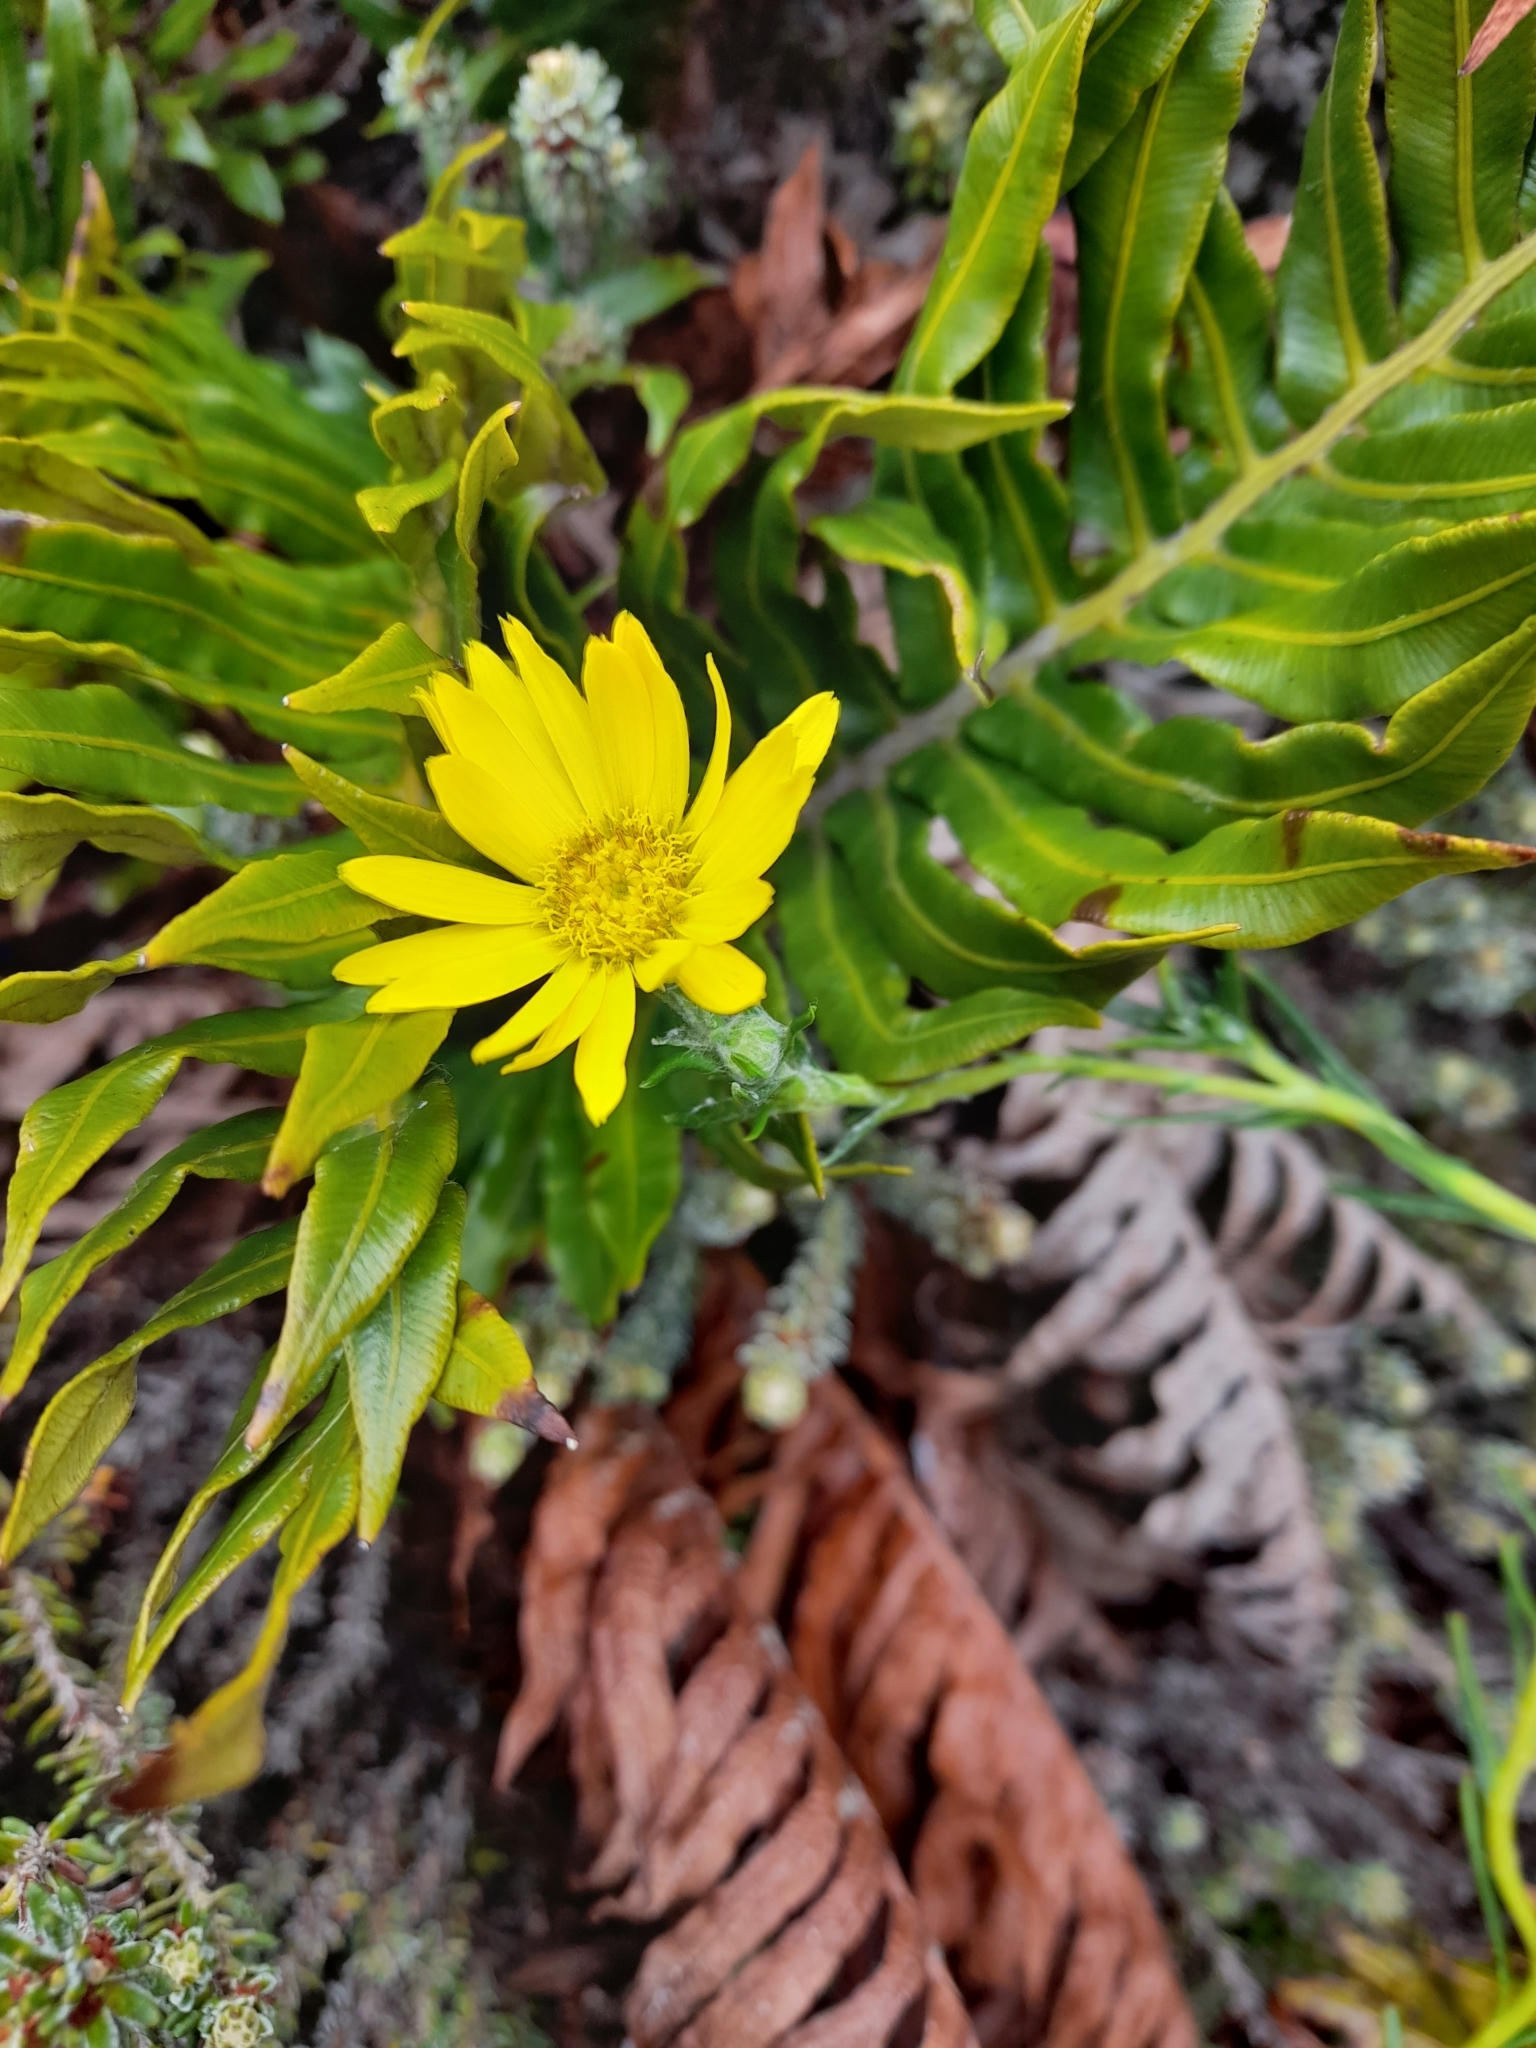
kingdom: Plantae
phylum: Tracheophyta
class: Magnoliopsida
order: Asterales
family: Asteraceae
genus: Senecio
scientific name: Senecio vaginatus
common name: Smooth falkland daisy
